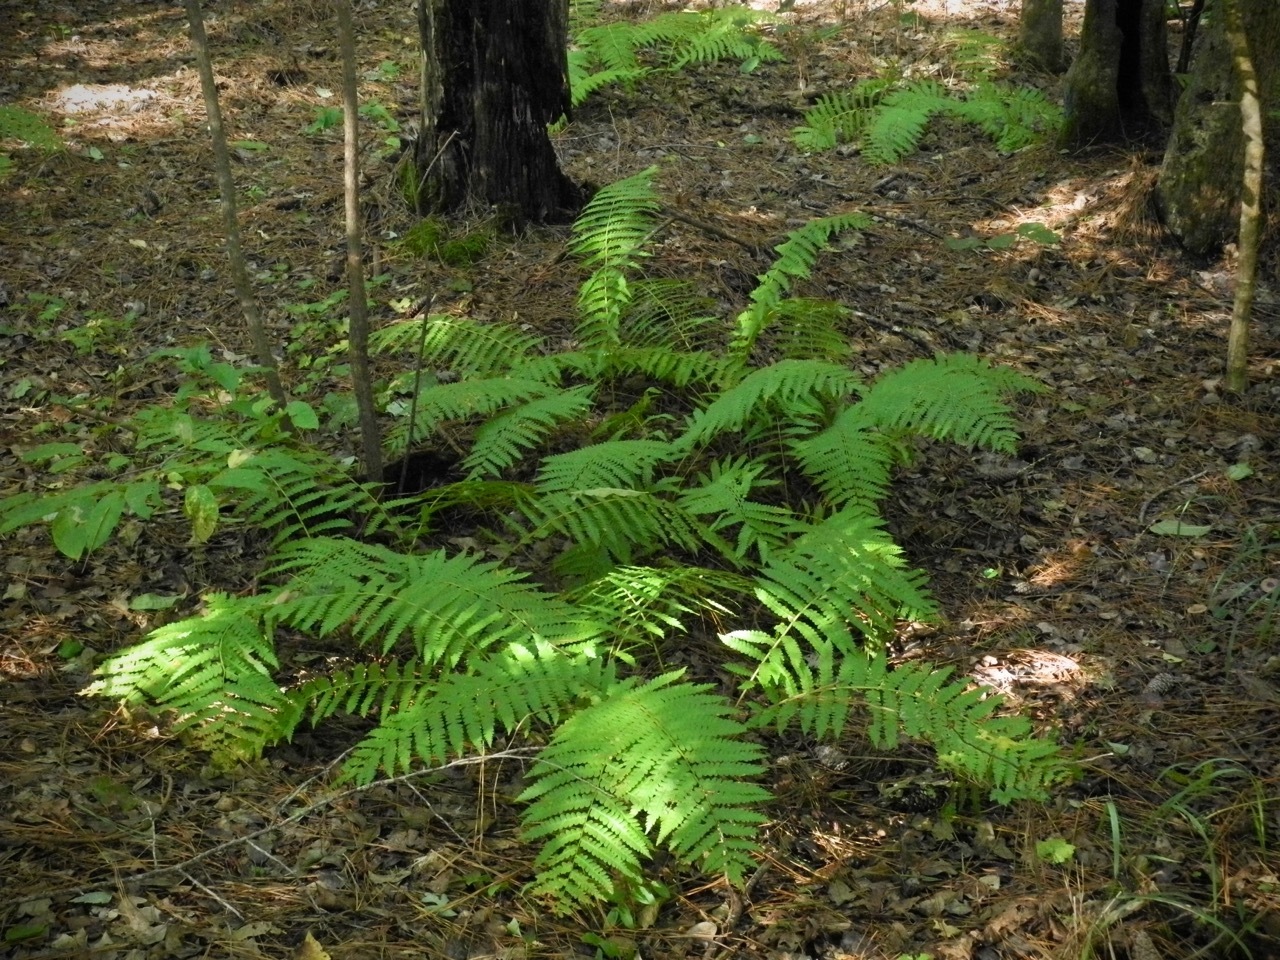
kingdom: Plantae
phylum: Tracheophyta
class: Polypodiopsida
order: Osmundales
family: Osmundaceae
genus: Osmundastrum
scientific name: Osmundastrum cinnamomeum
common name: Cinnamon fern
